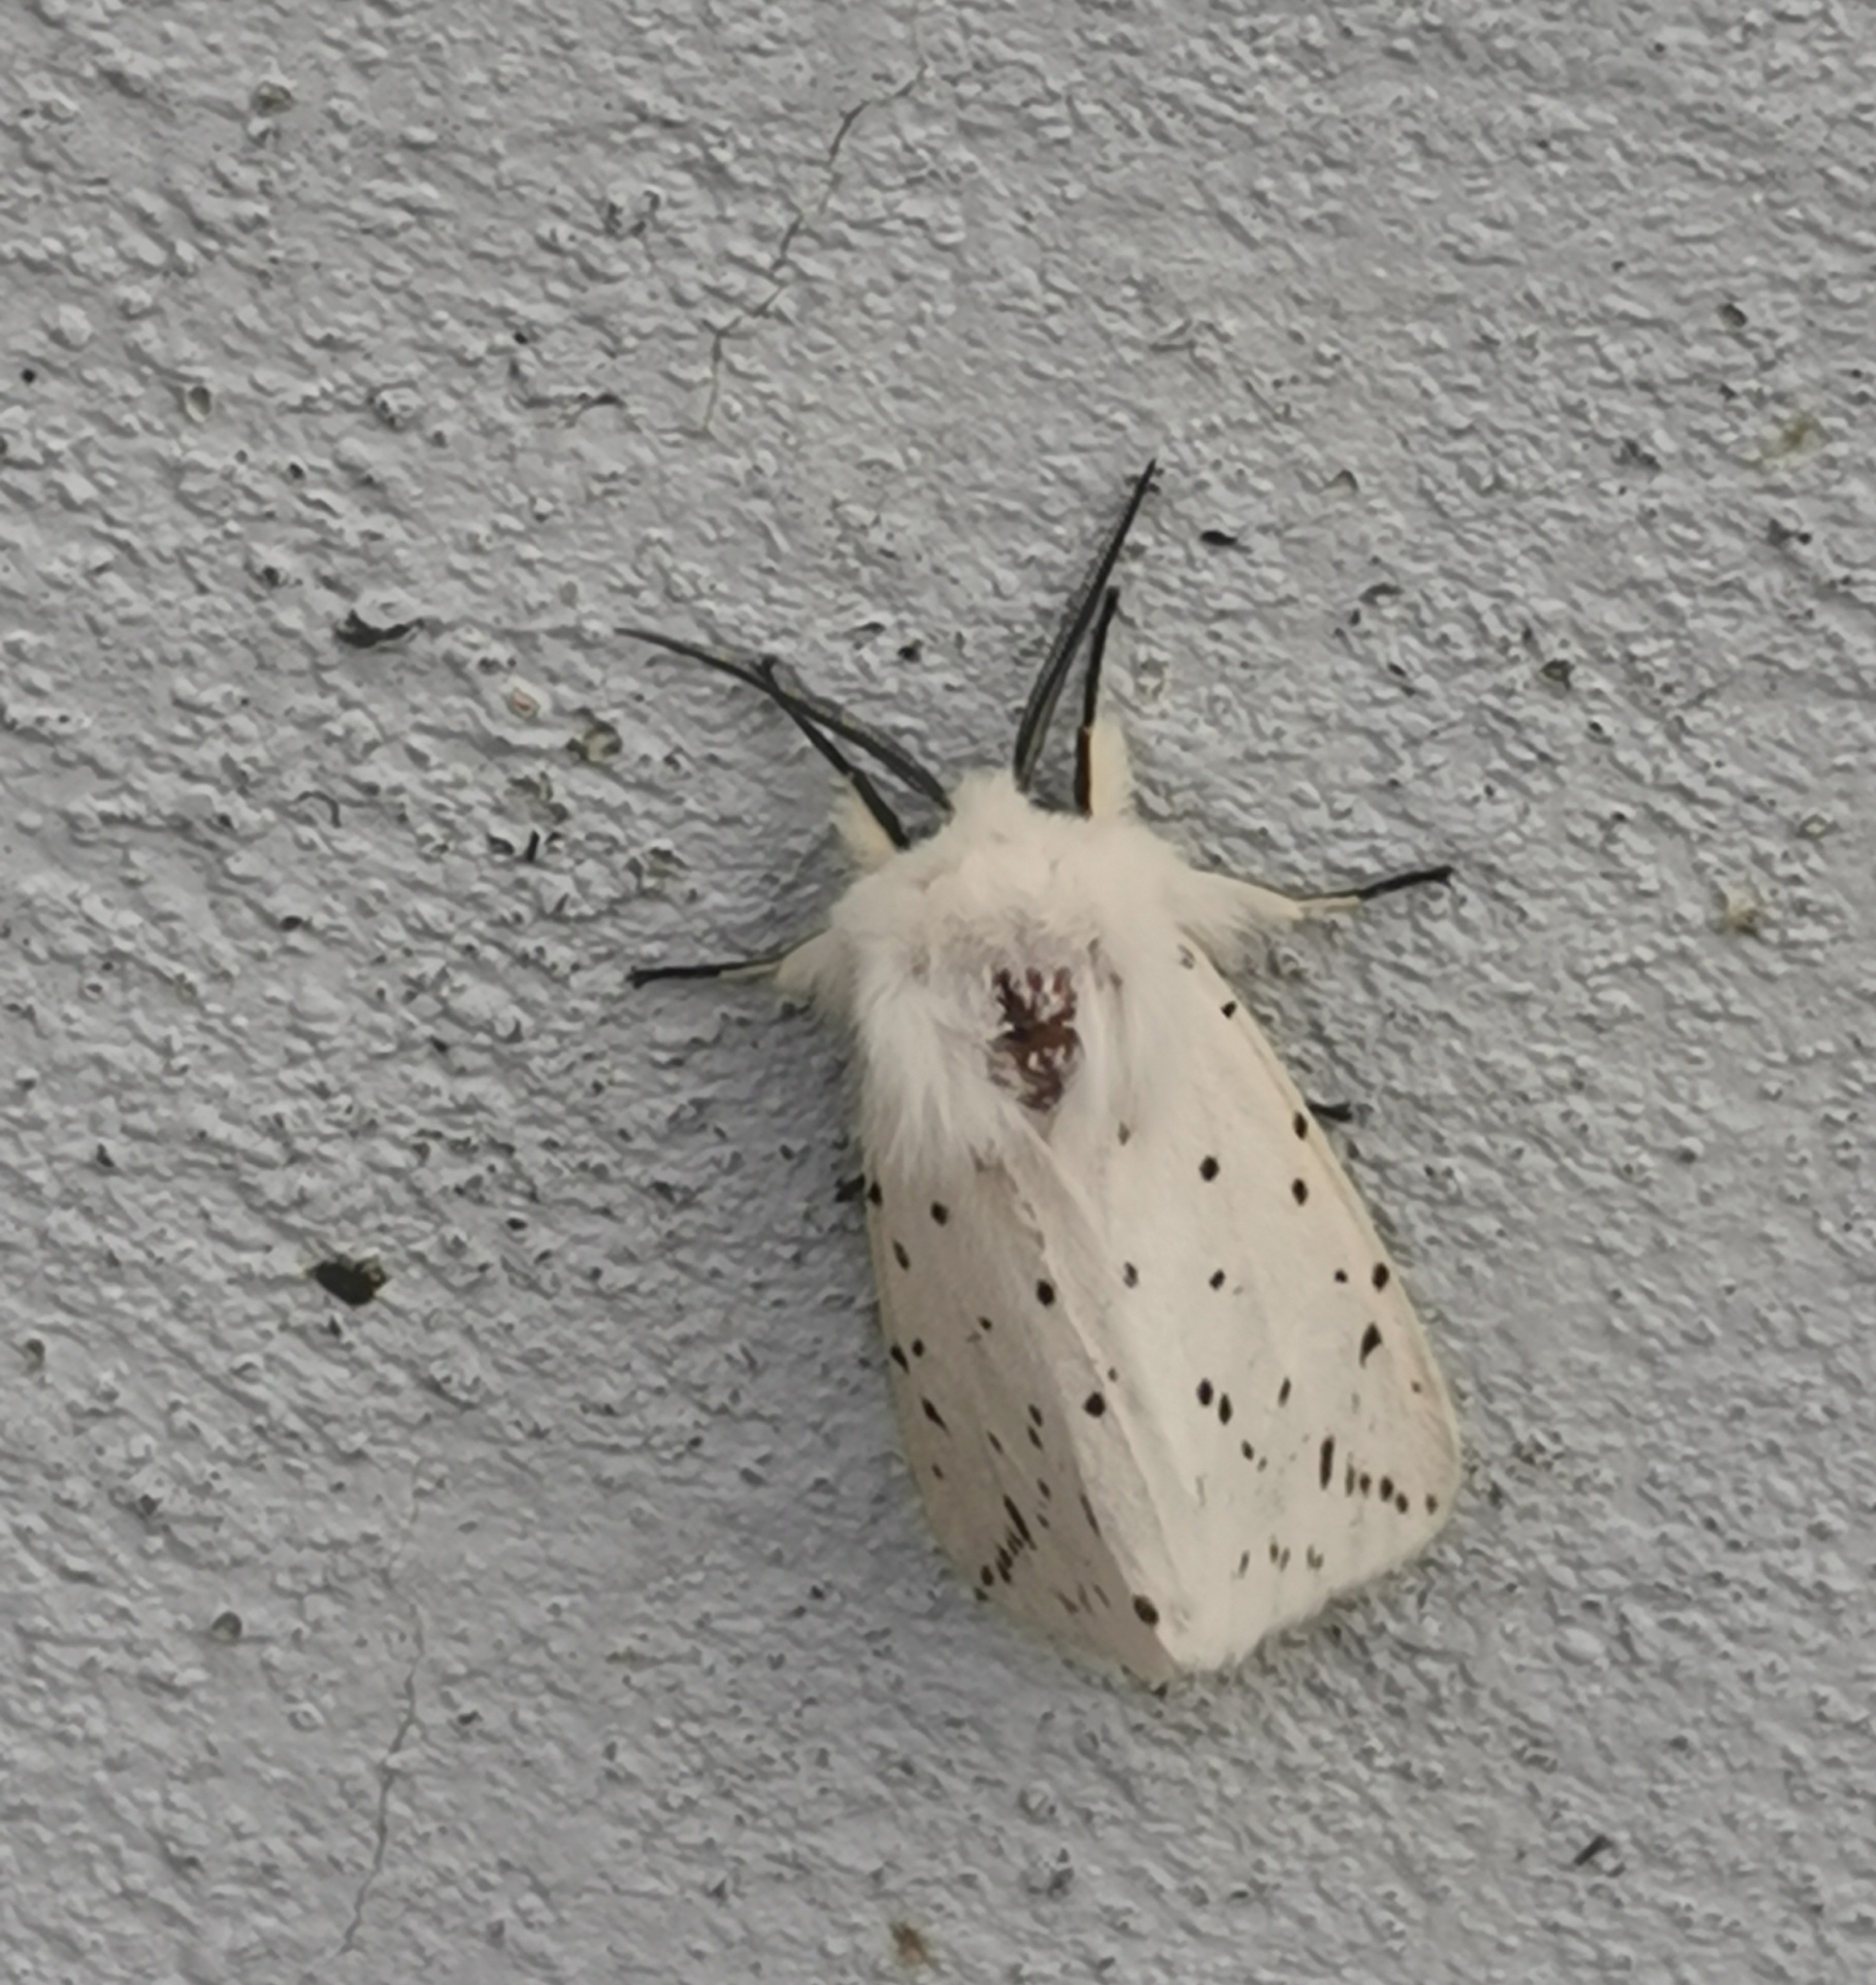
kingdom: Animalia
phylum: Arthropoda
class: Insecta
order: Lepidoptera
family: Erebidae
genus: Spilosoma
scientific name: Spilosoma lubricipeda
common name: White ermine
